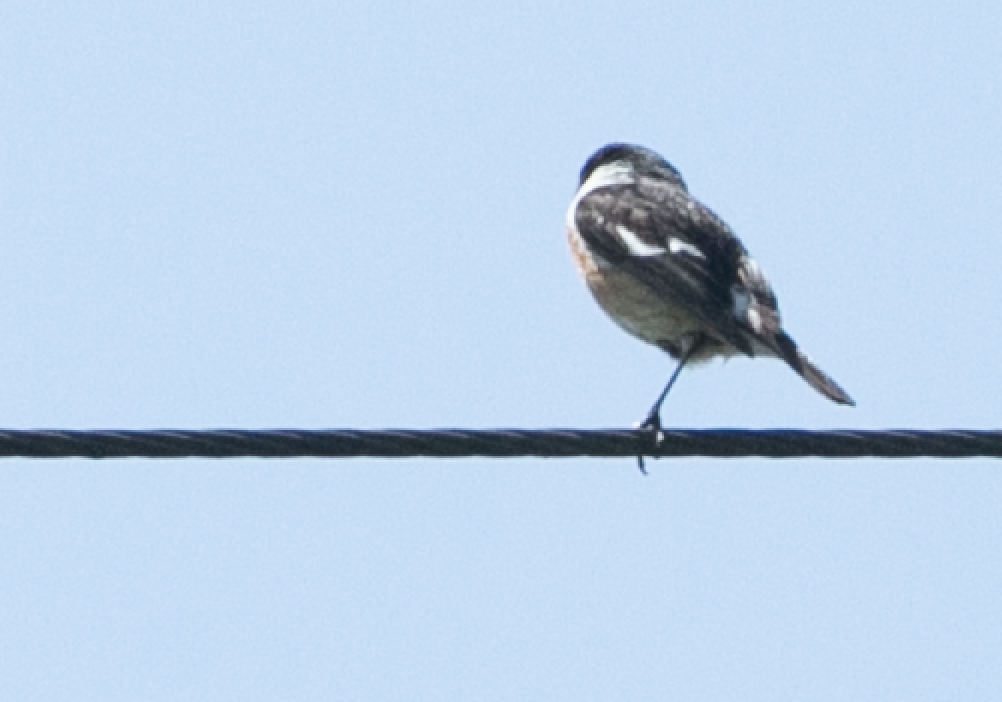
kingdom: Animalia
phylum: Chordata
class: Aves
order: Passeriformes
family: Muscicapidae
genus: Saxicola
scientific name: Saxicola rubicola
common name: European stonechat
